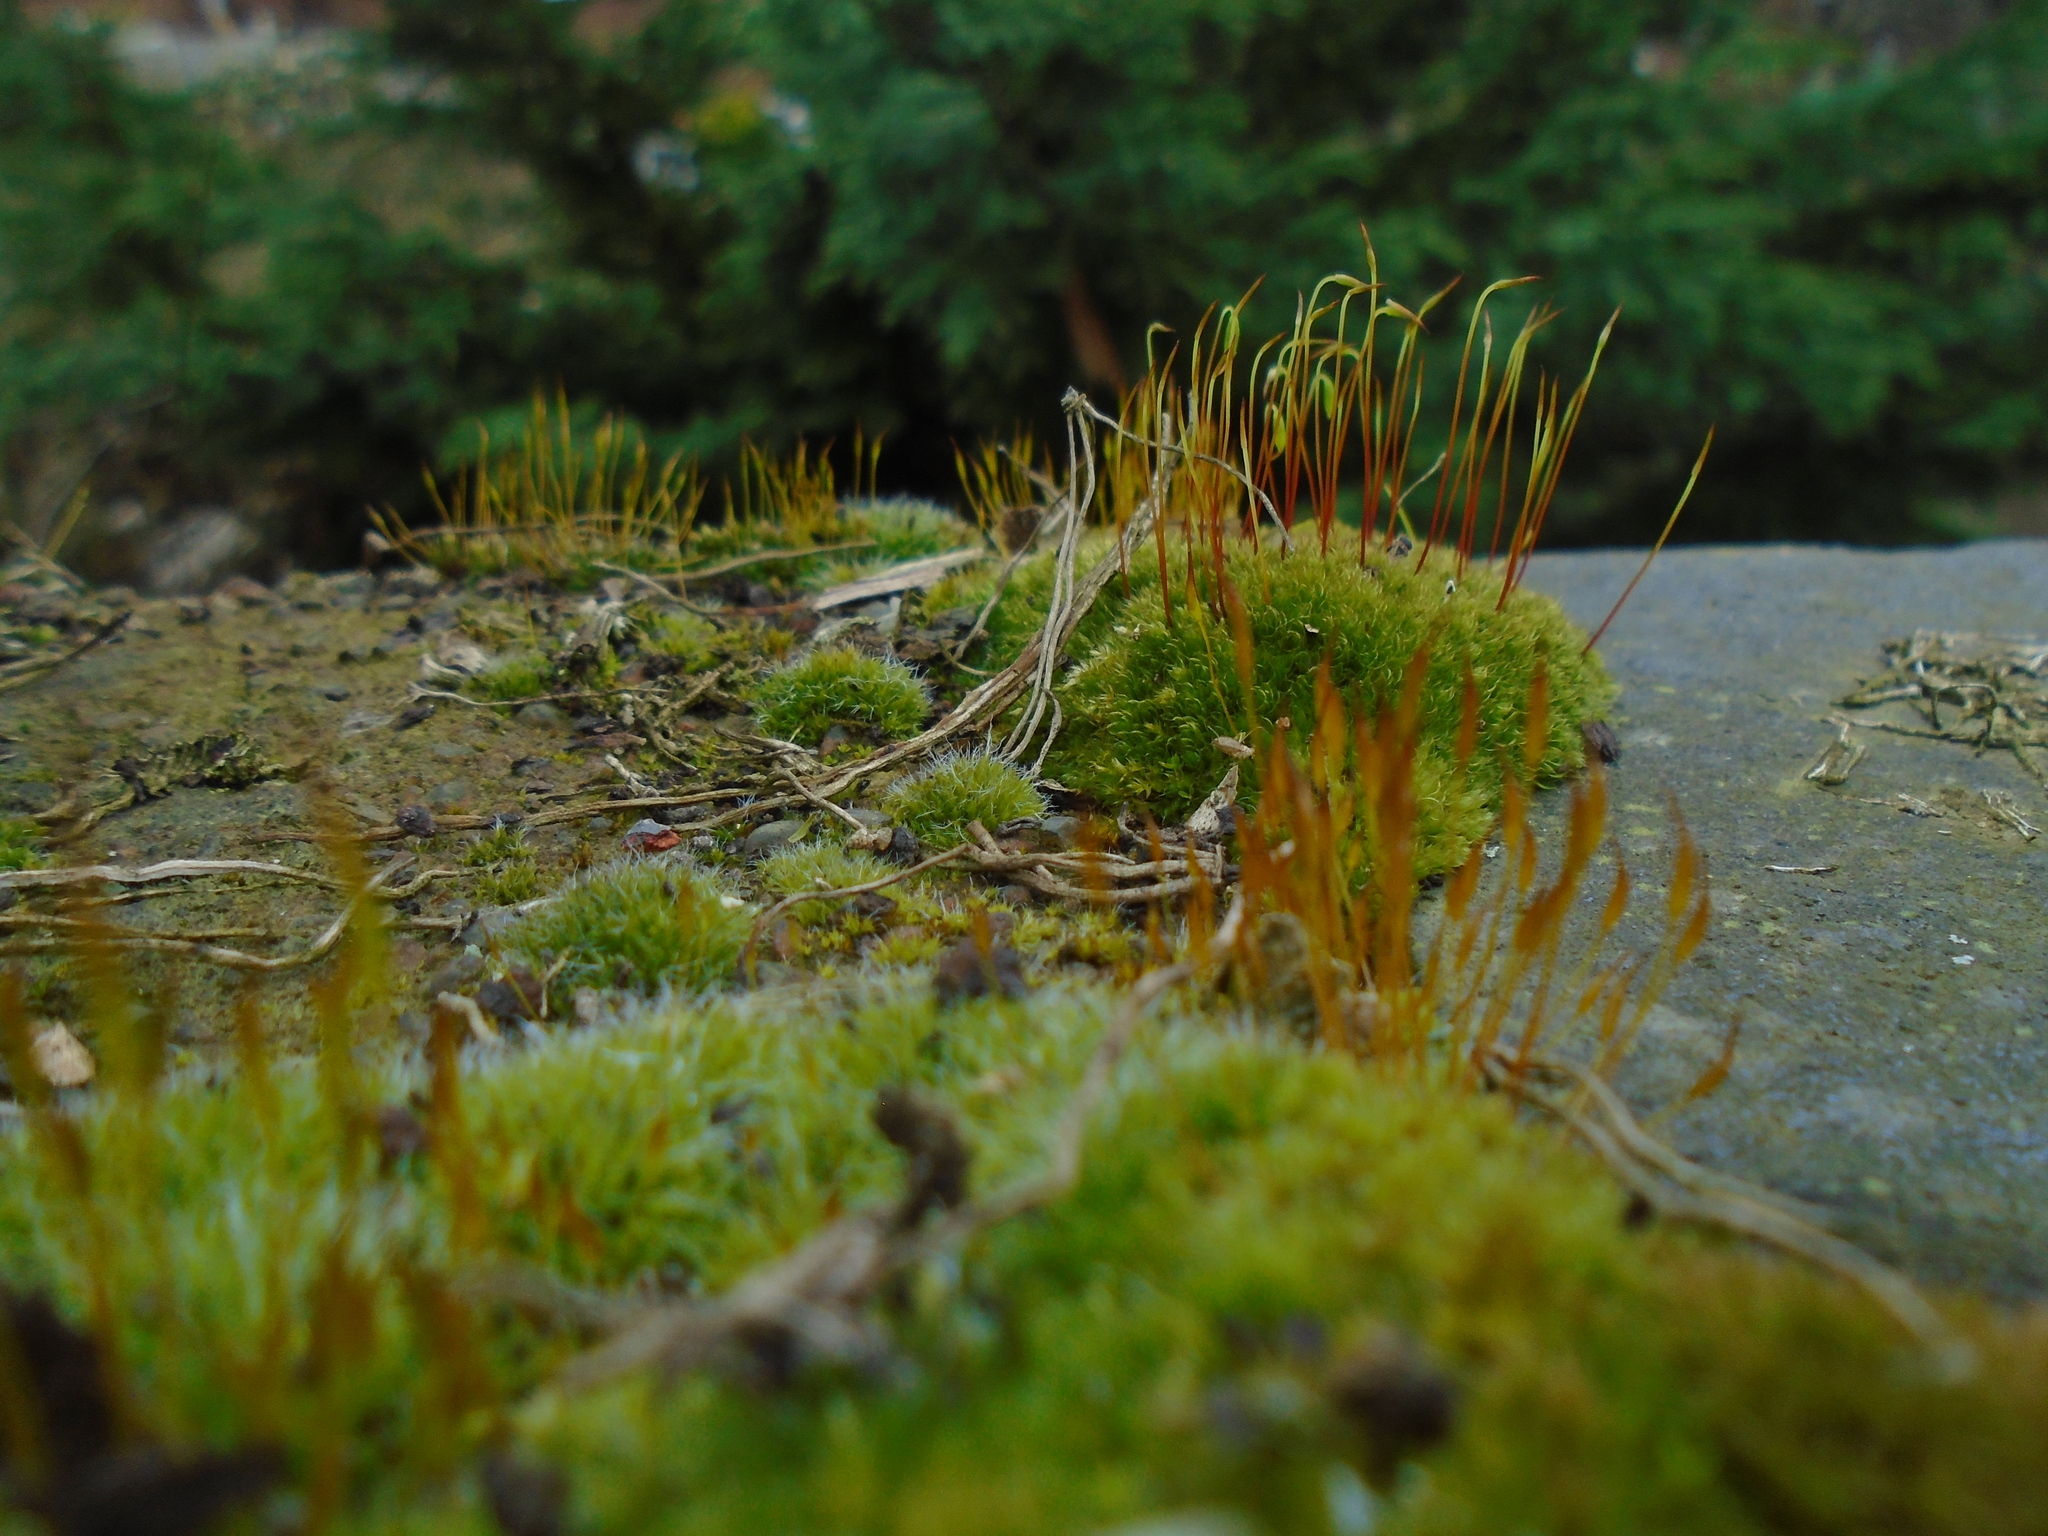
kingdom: Plantae
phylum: Bryophyta
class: Bryopsida
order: Bryales
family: Bryaceae
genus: Rosulabryum
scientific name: Rosulabryum capillare
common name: Capillary thread-moss
